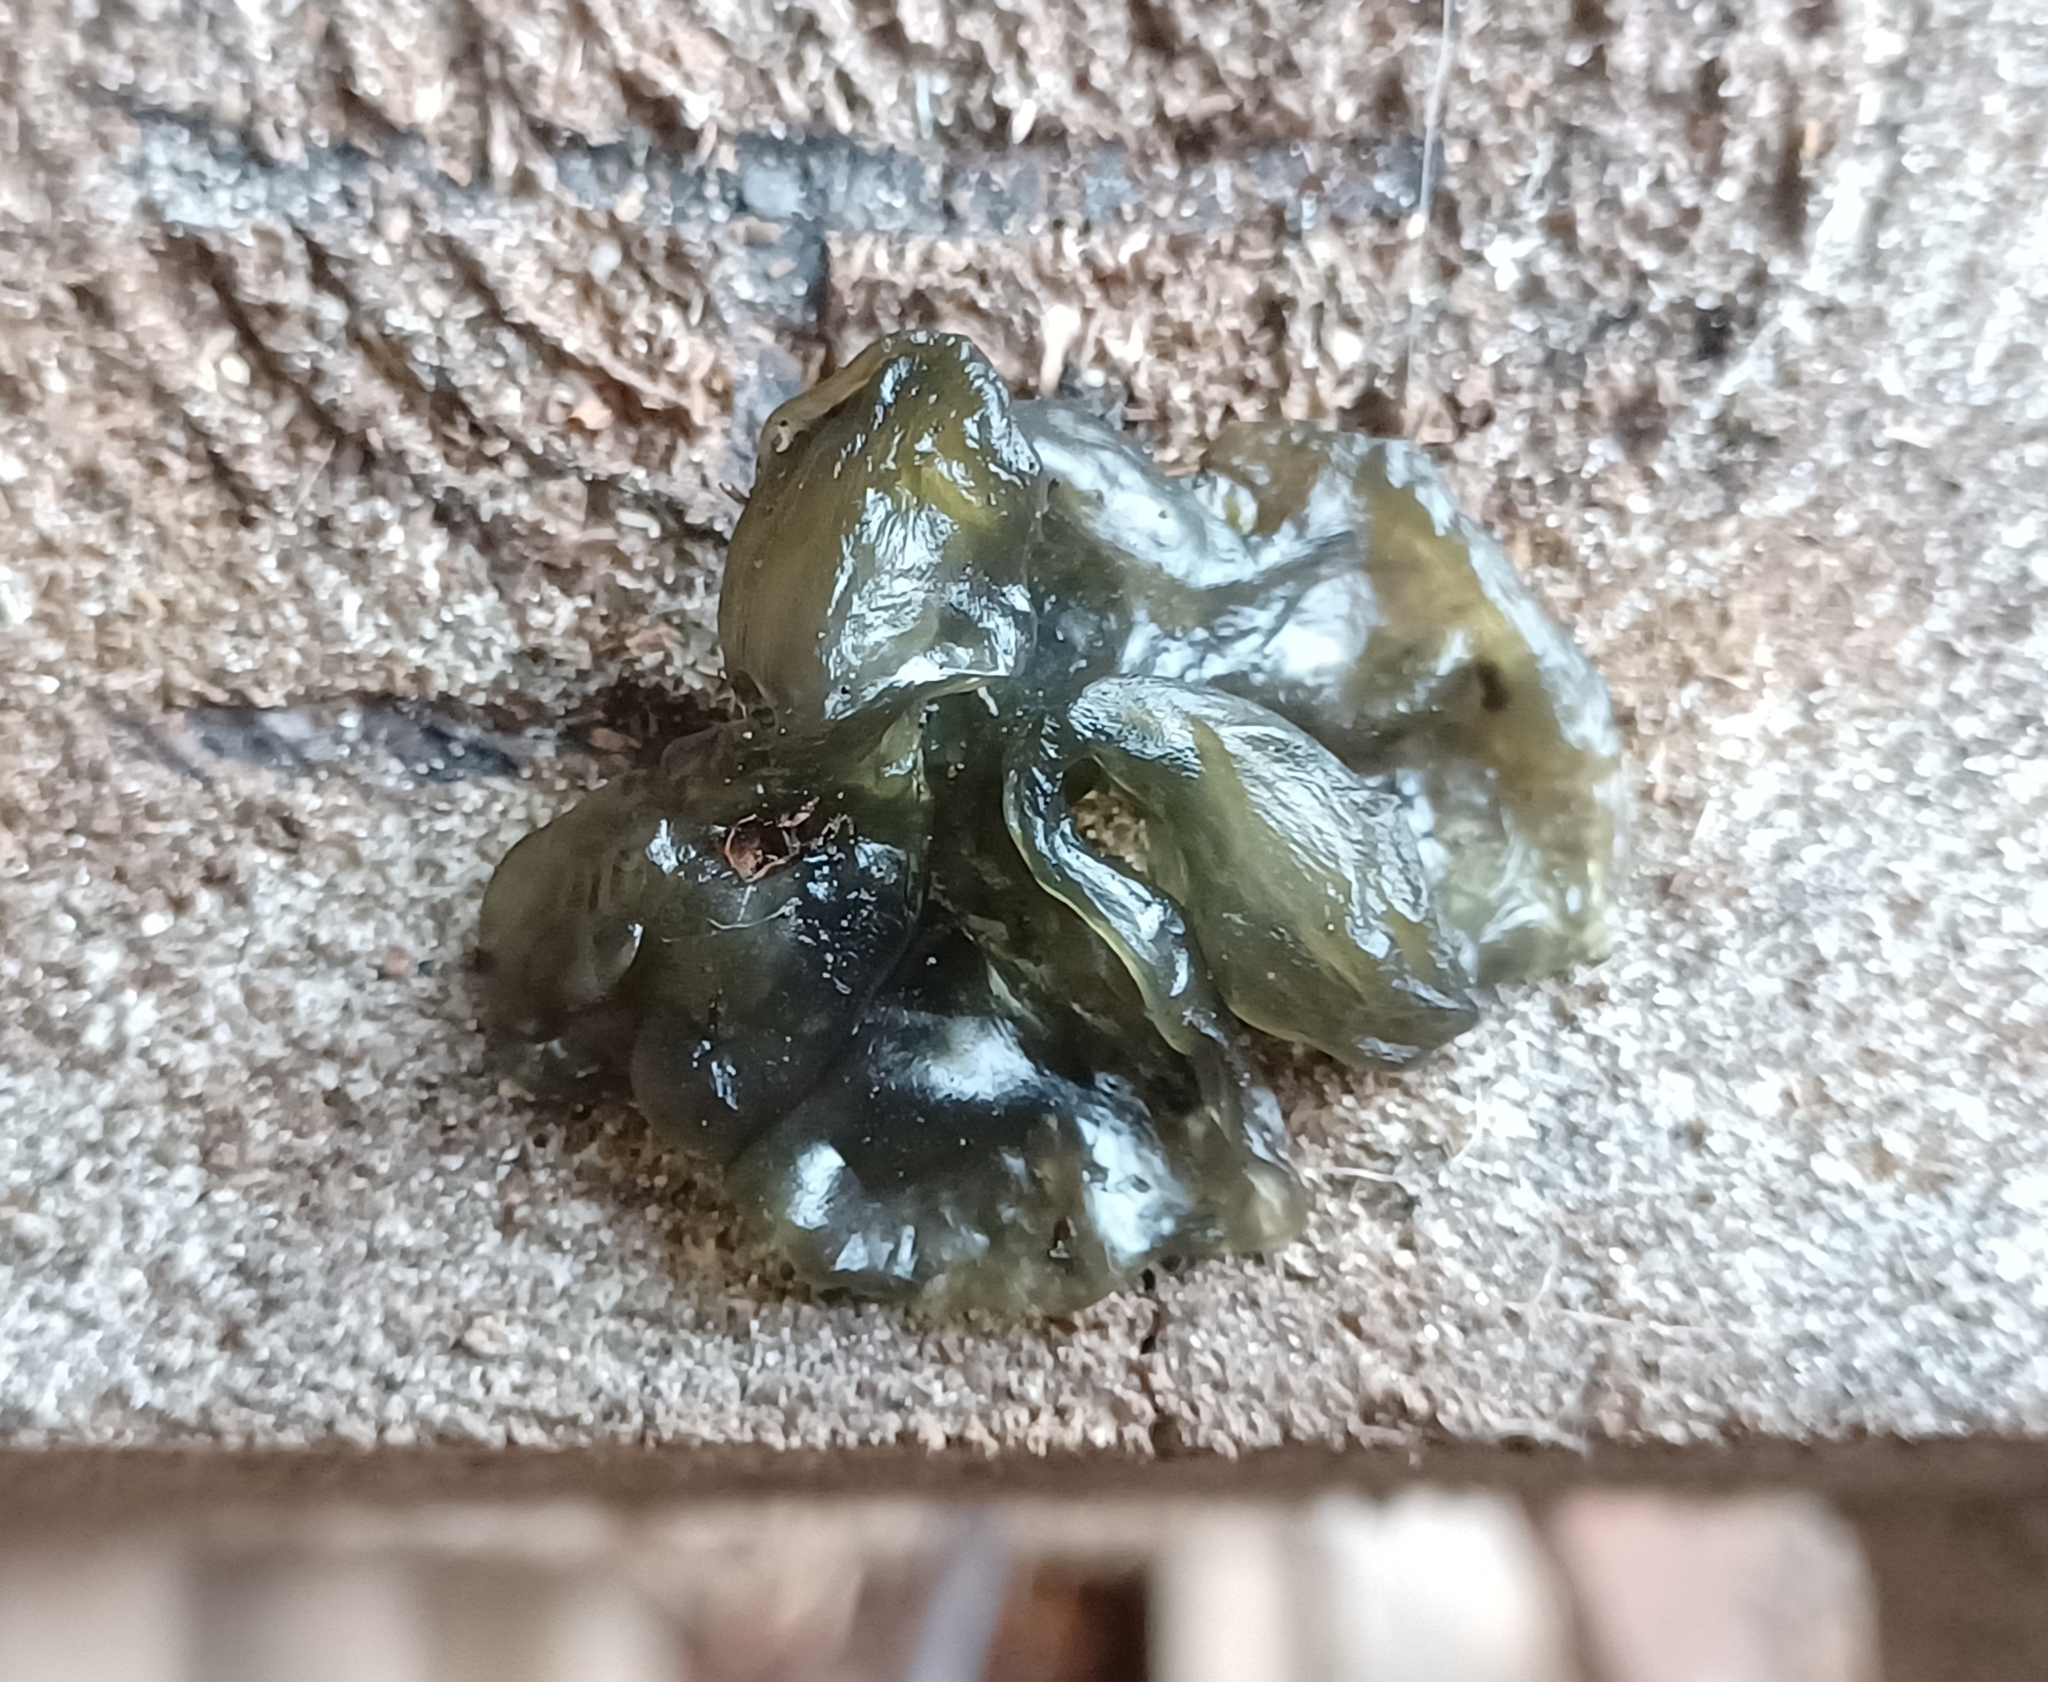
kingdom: Bacteria
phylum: Cyanobacteria
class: Cyanobacteriia
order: Cyanobacteriales
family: Nostocaceae
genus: Nostoc
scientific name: Nostoc commune
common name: Star jelly
